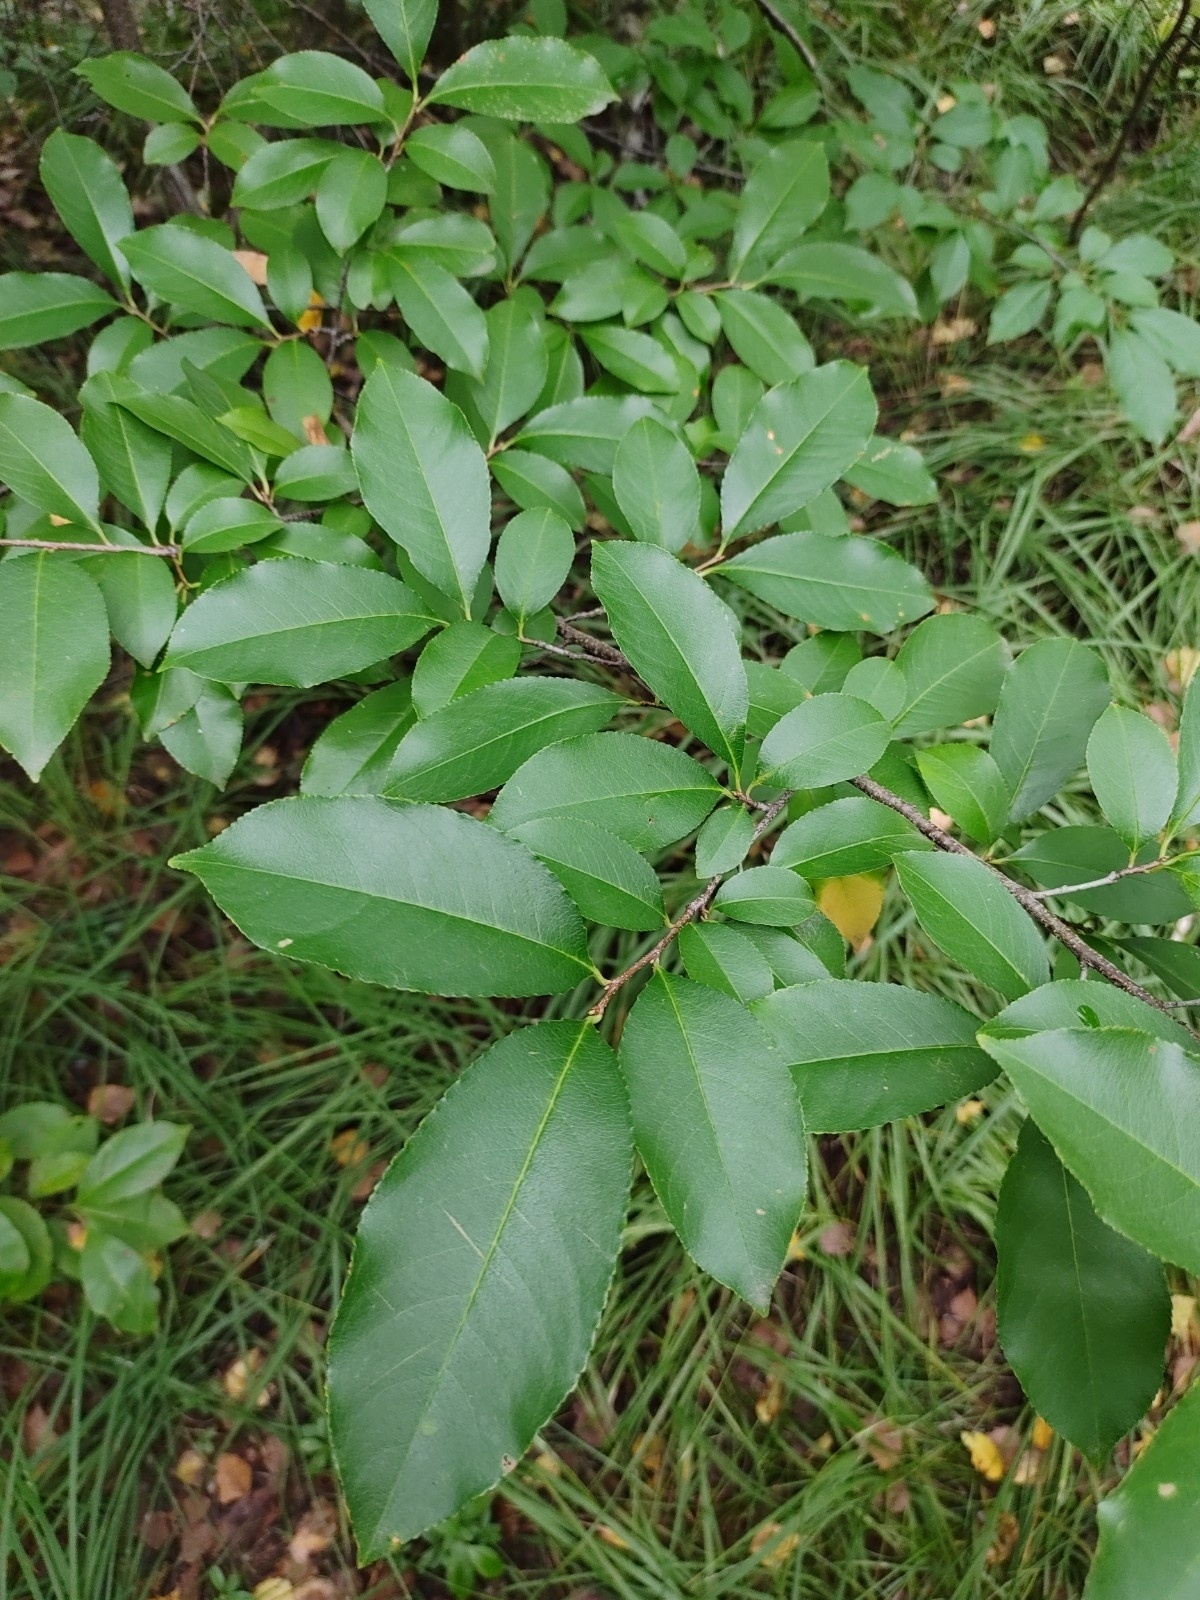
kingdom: Plantae
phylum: Tracheophyta
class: Magnoliopsida
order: Rosales
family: Rosaceae
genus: Prunus
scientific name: Prunus serotina
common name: Black cherry
